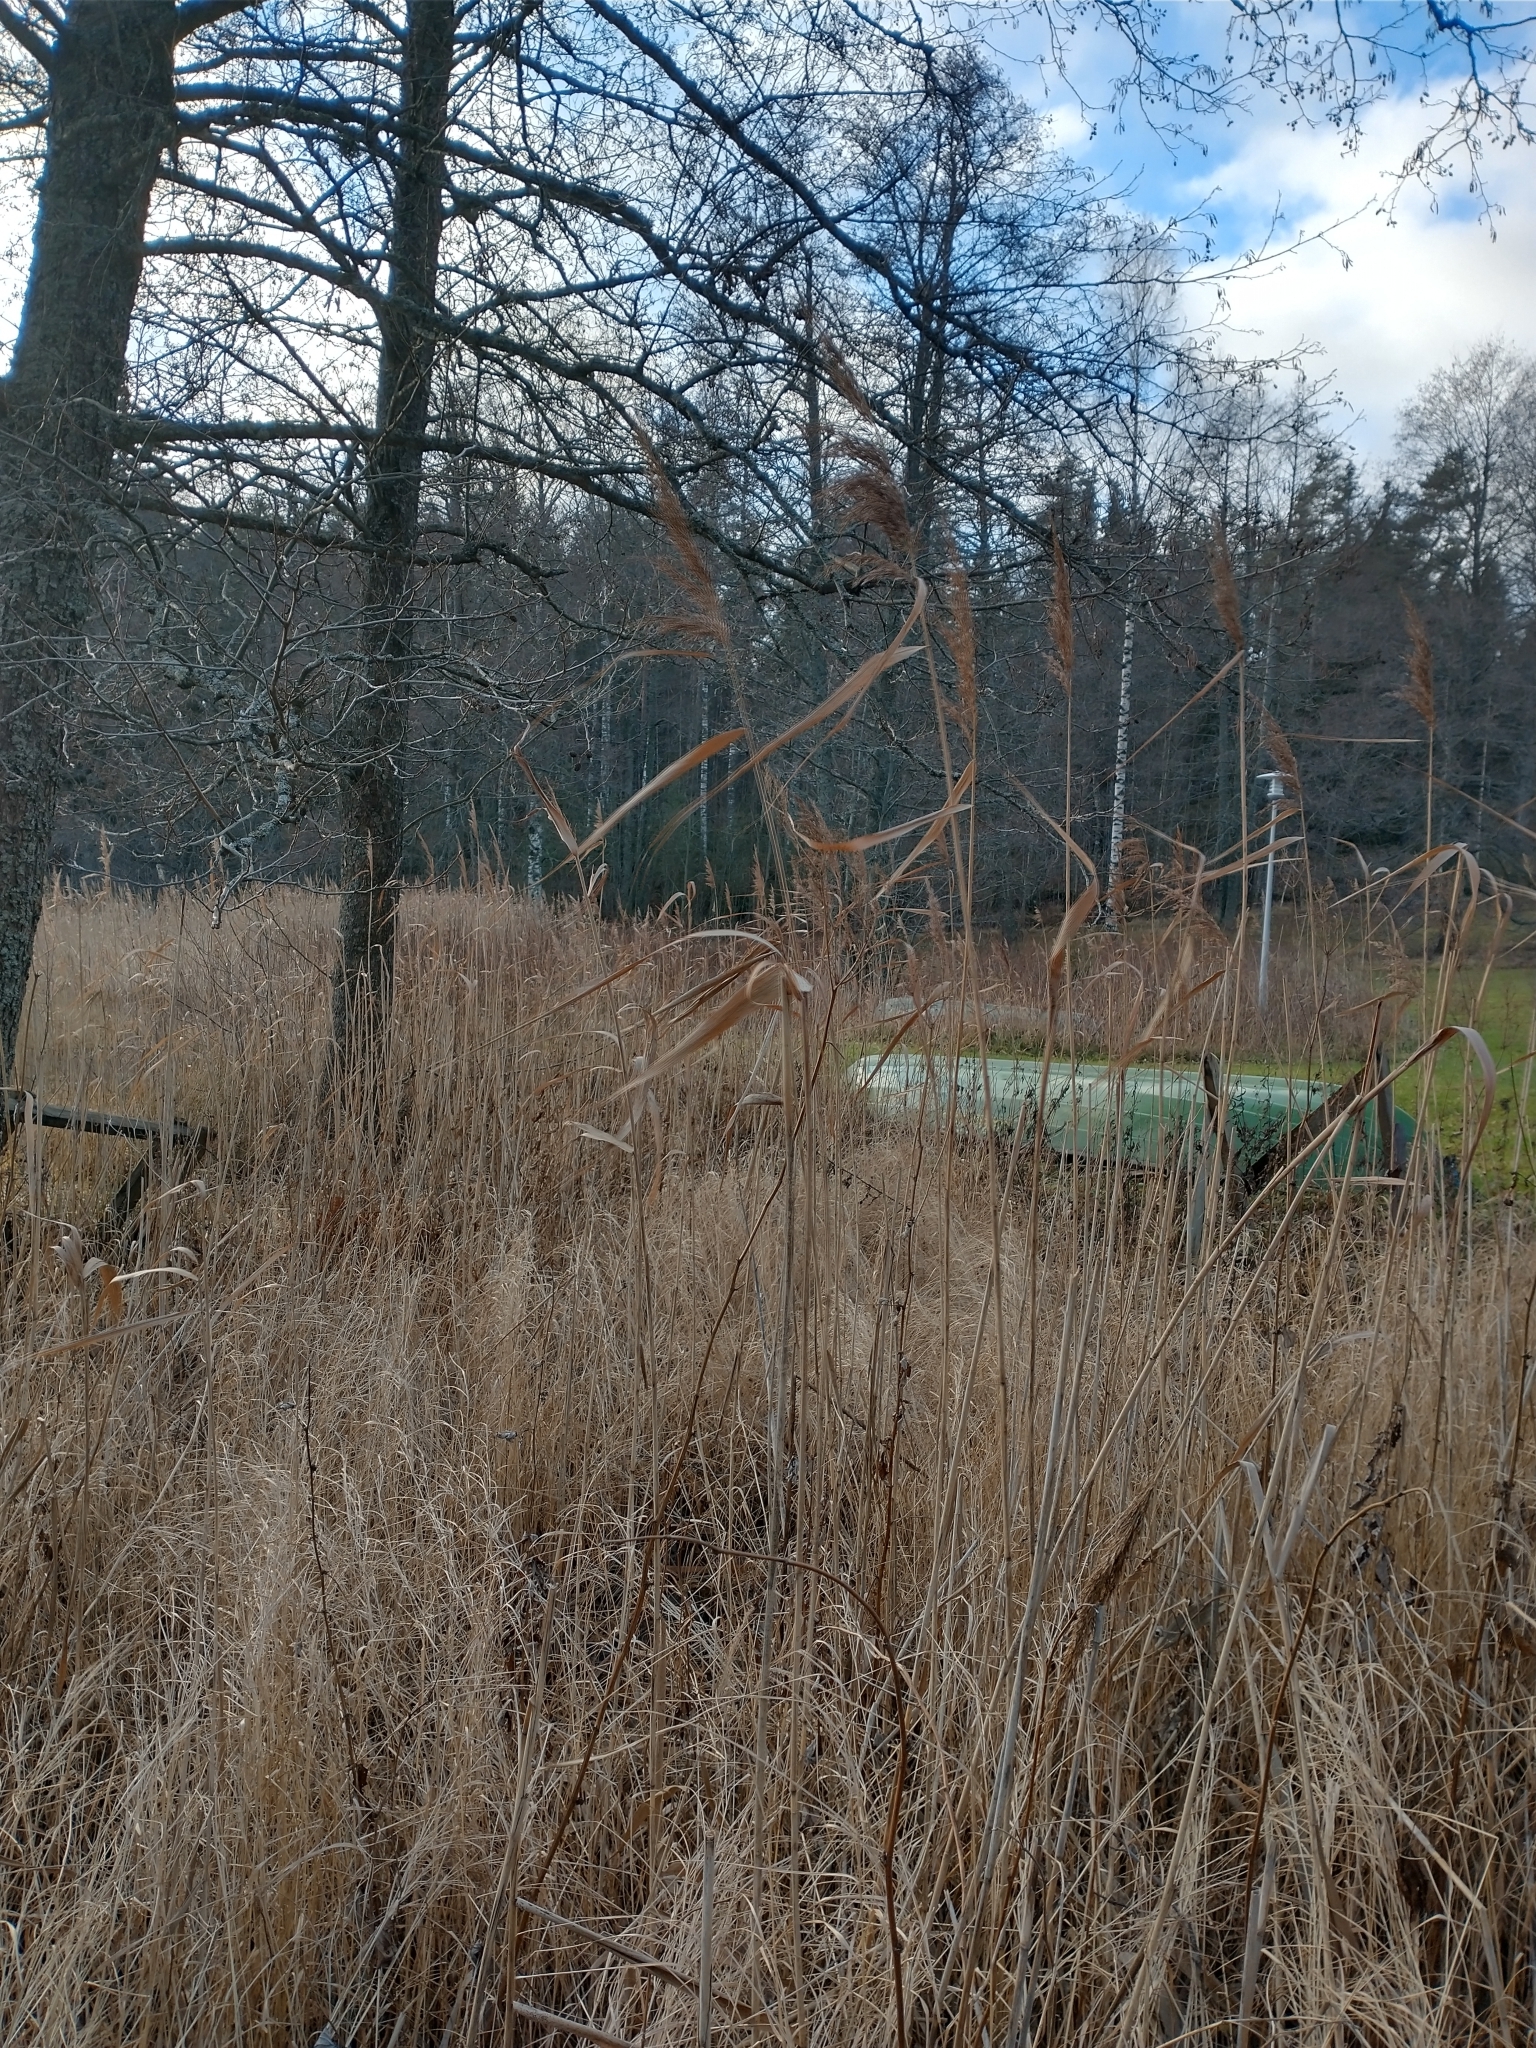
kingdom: Plantae
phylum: Tracheophyta
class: Liliopsida
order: Poales
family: Poaceae
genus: Phragmites
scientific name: Phragmites australis
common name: Common reed
